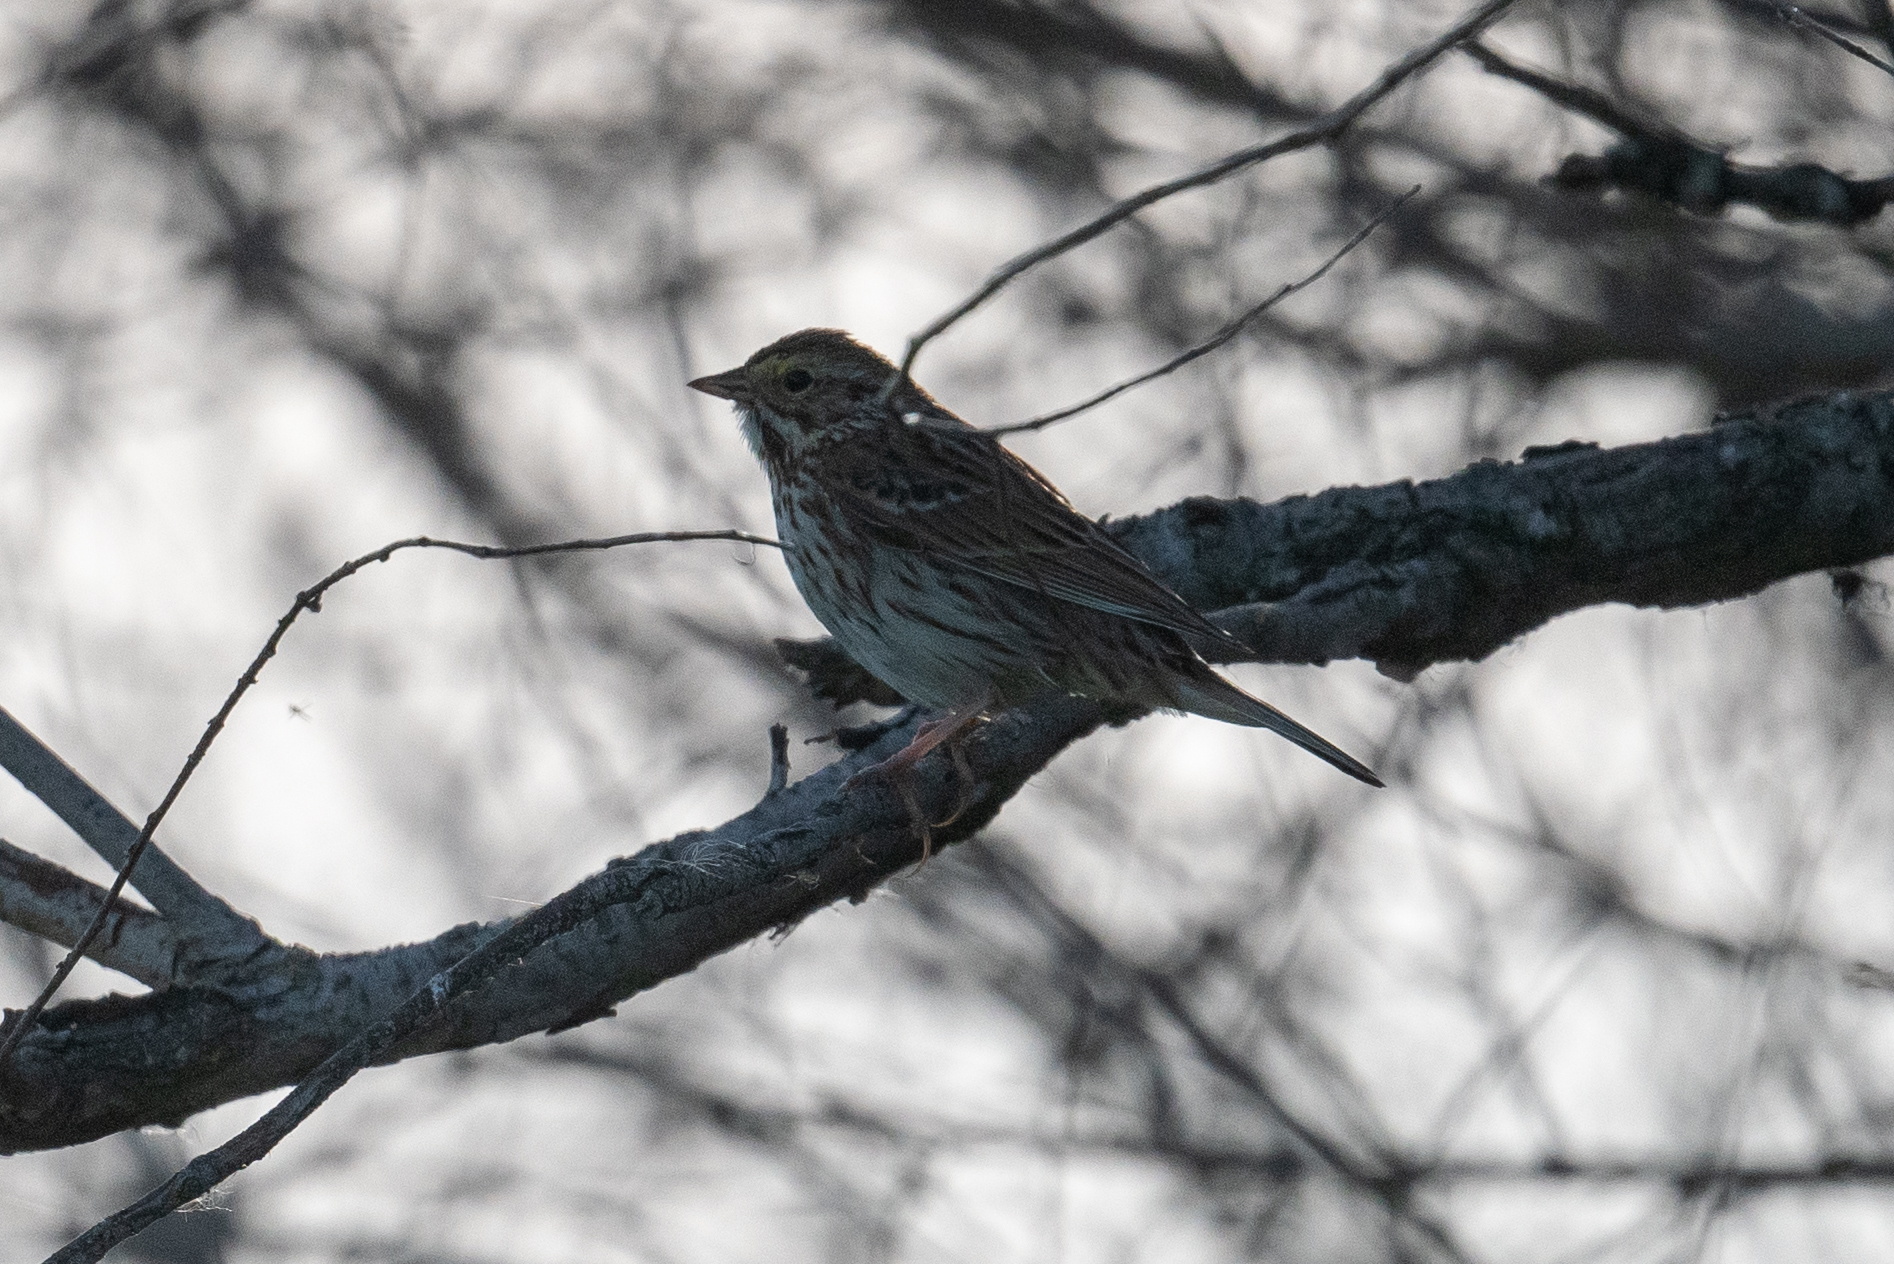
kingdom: Animalia
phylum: Chordata
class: Aves
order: Passeriformes
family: Passerellidae
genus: Passerculus
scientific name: Passerculus sandwichensis
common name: Savannah sparrow
